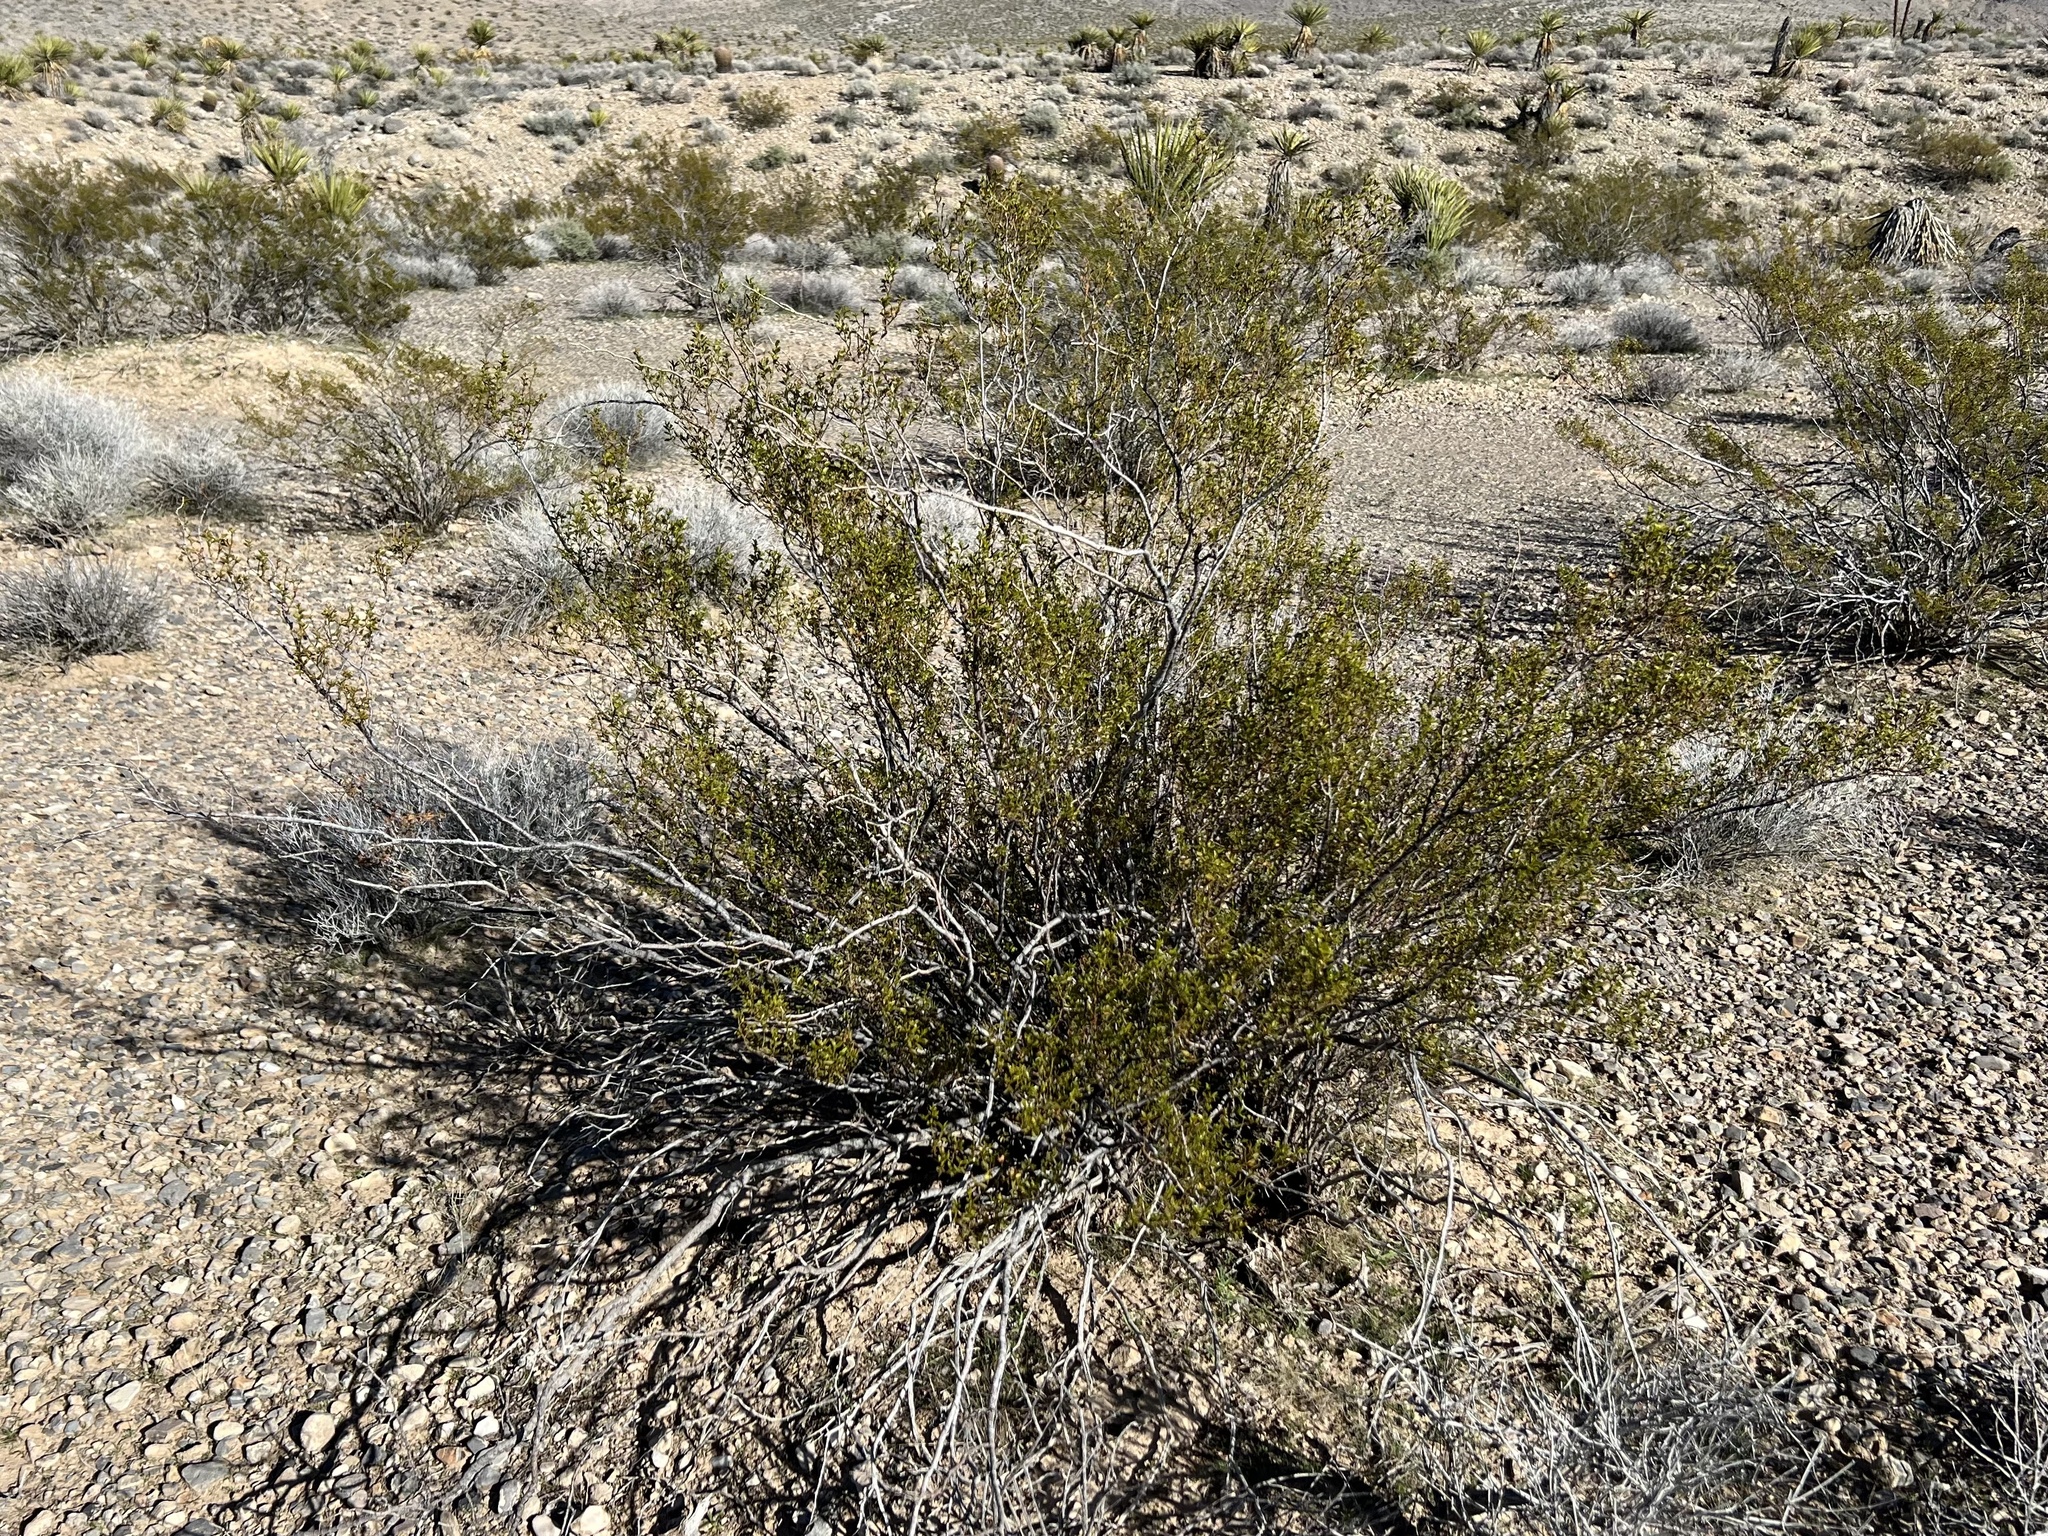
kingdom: Plantae
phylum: Tracheophyta
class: Magnoliopsida
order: Zygophyllales
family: Zygophyllaceae
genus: Larrea
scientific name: Larrea tridentata
